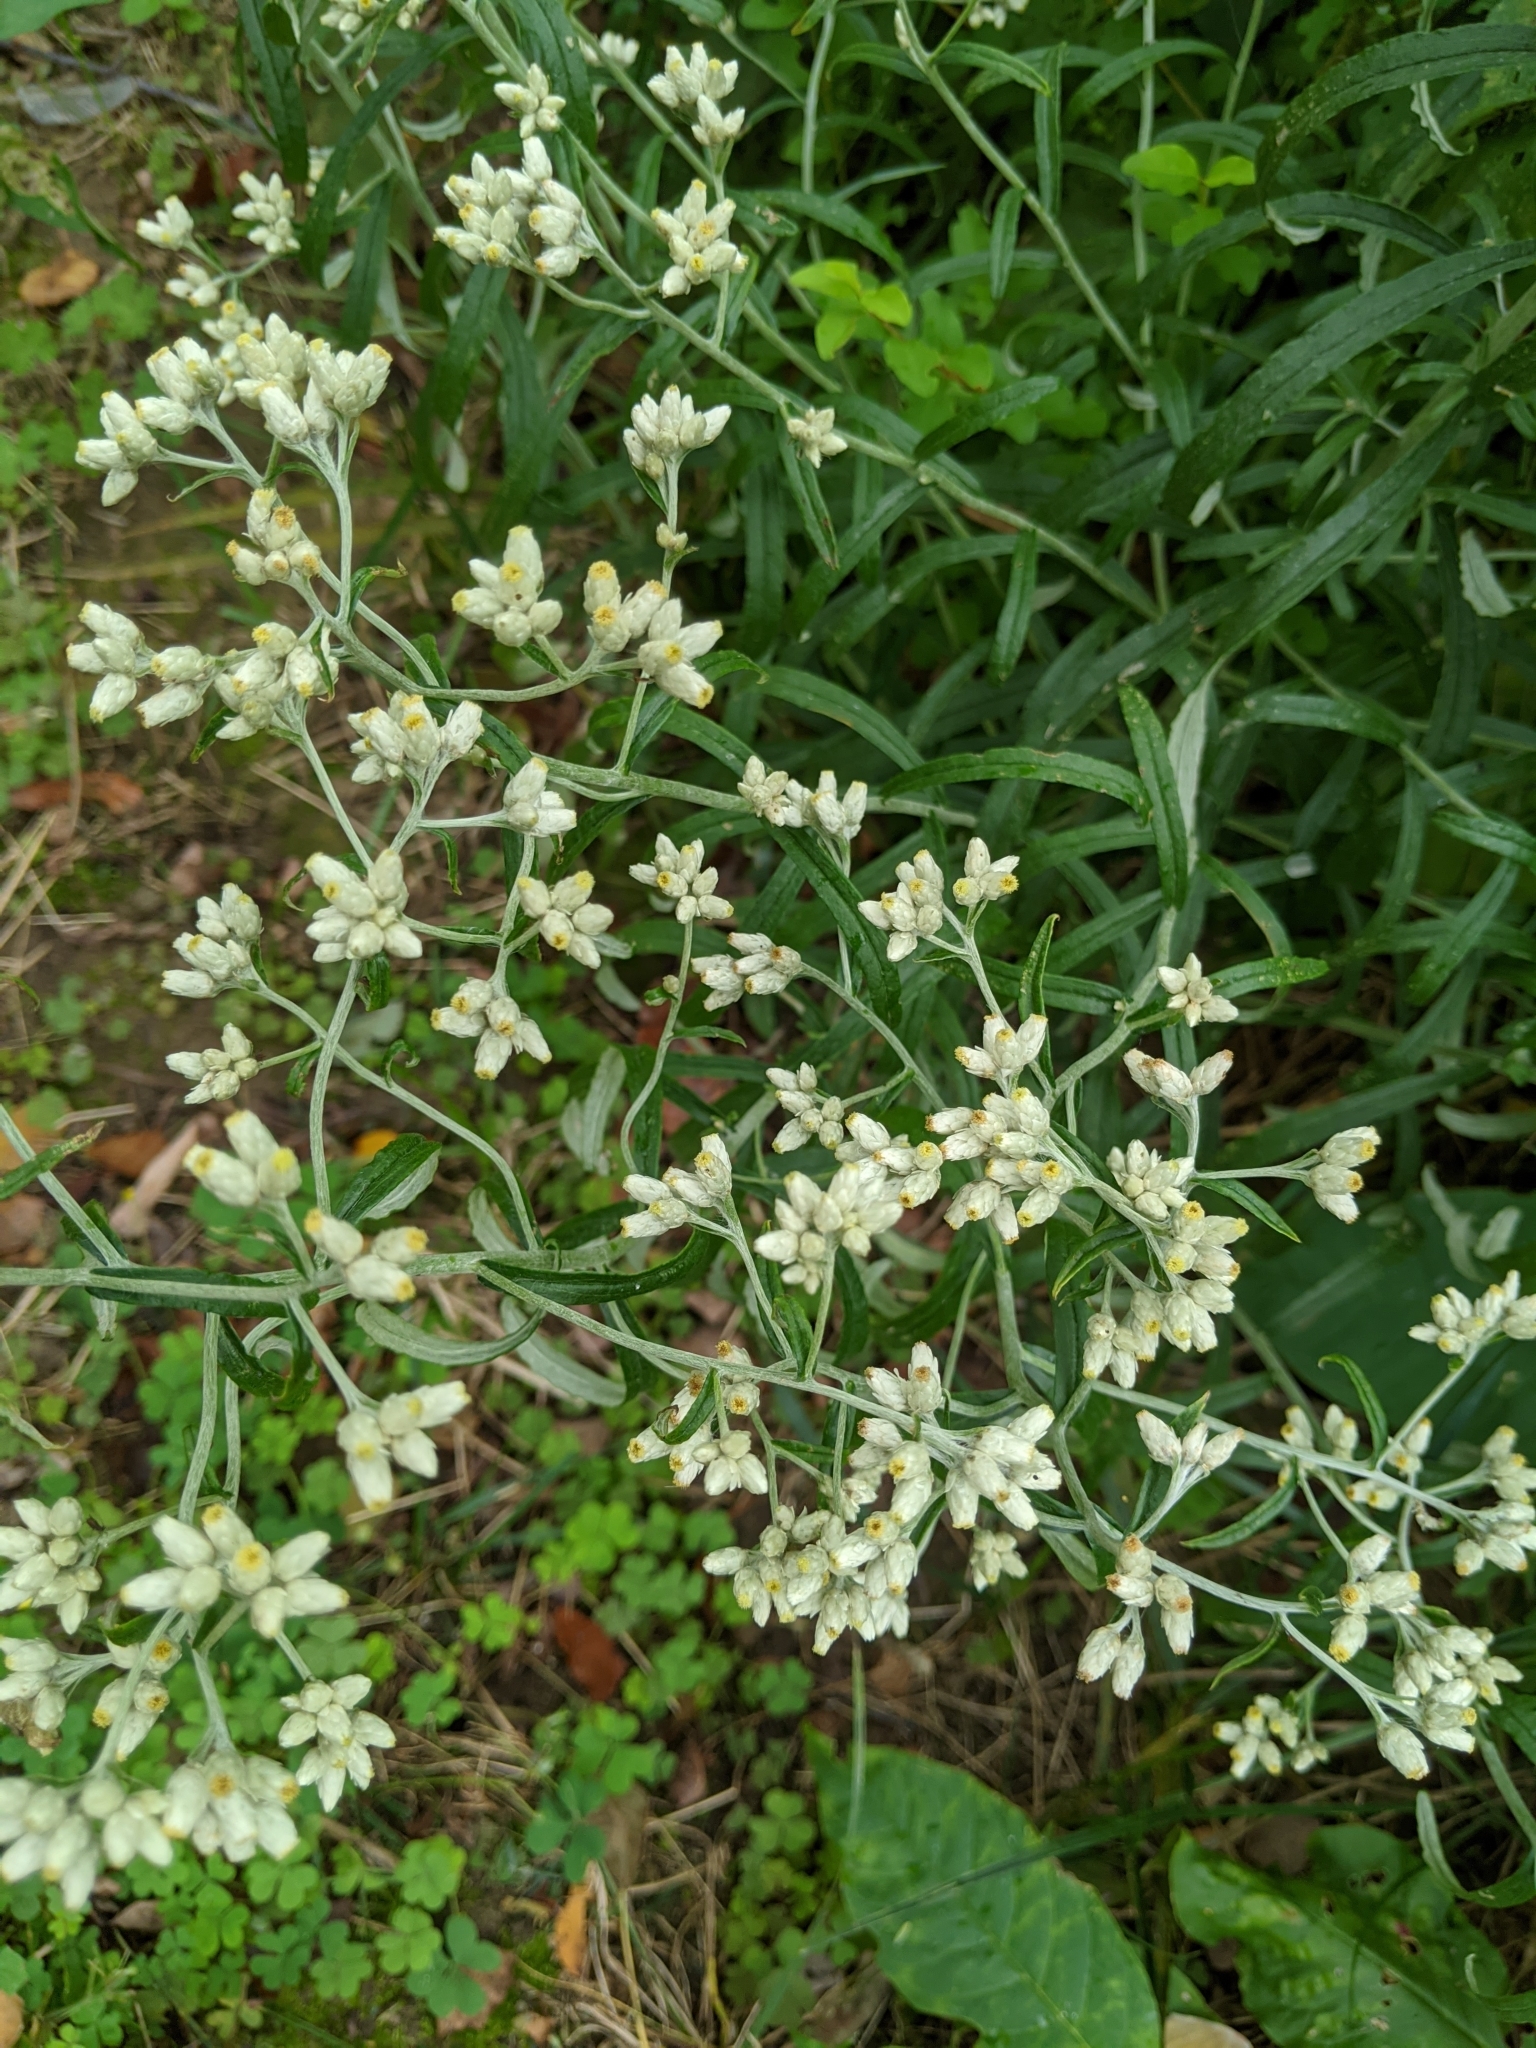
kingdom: Plantae
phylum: Tracheophyta
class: Magnoliopsida
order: Asterales
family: Asteraceae
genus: Pseudognaphalium
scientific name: Pseudognaphalium obtusifolium
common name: Eastern rabbit-tobacco
